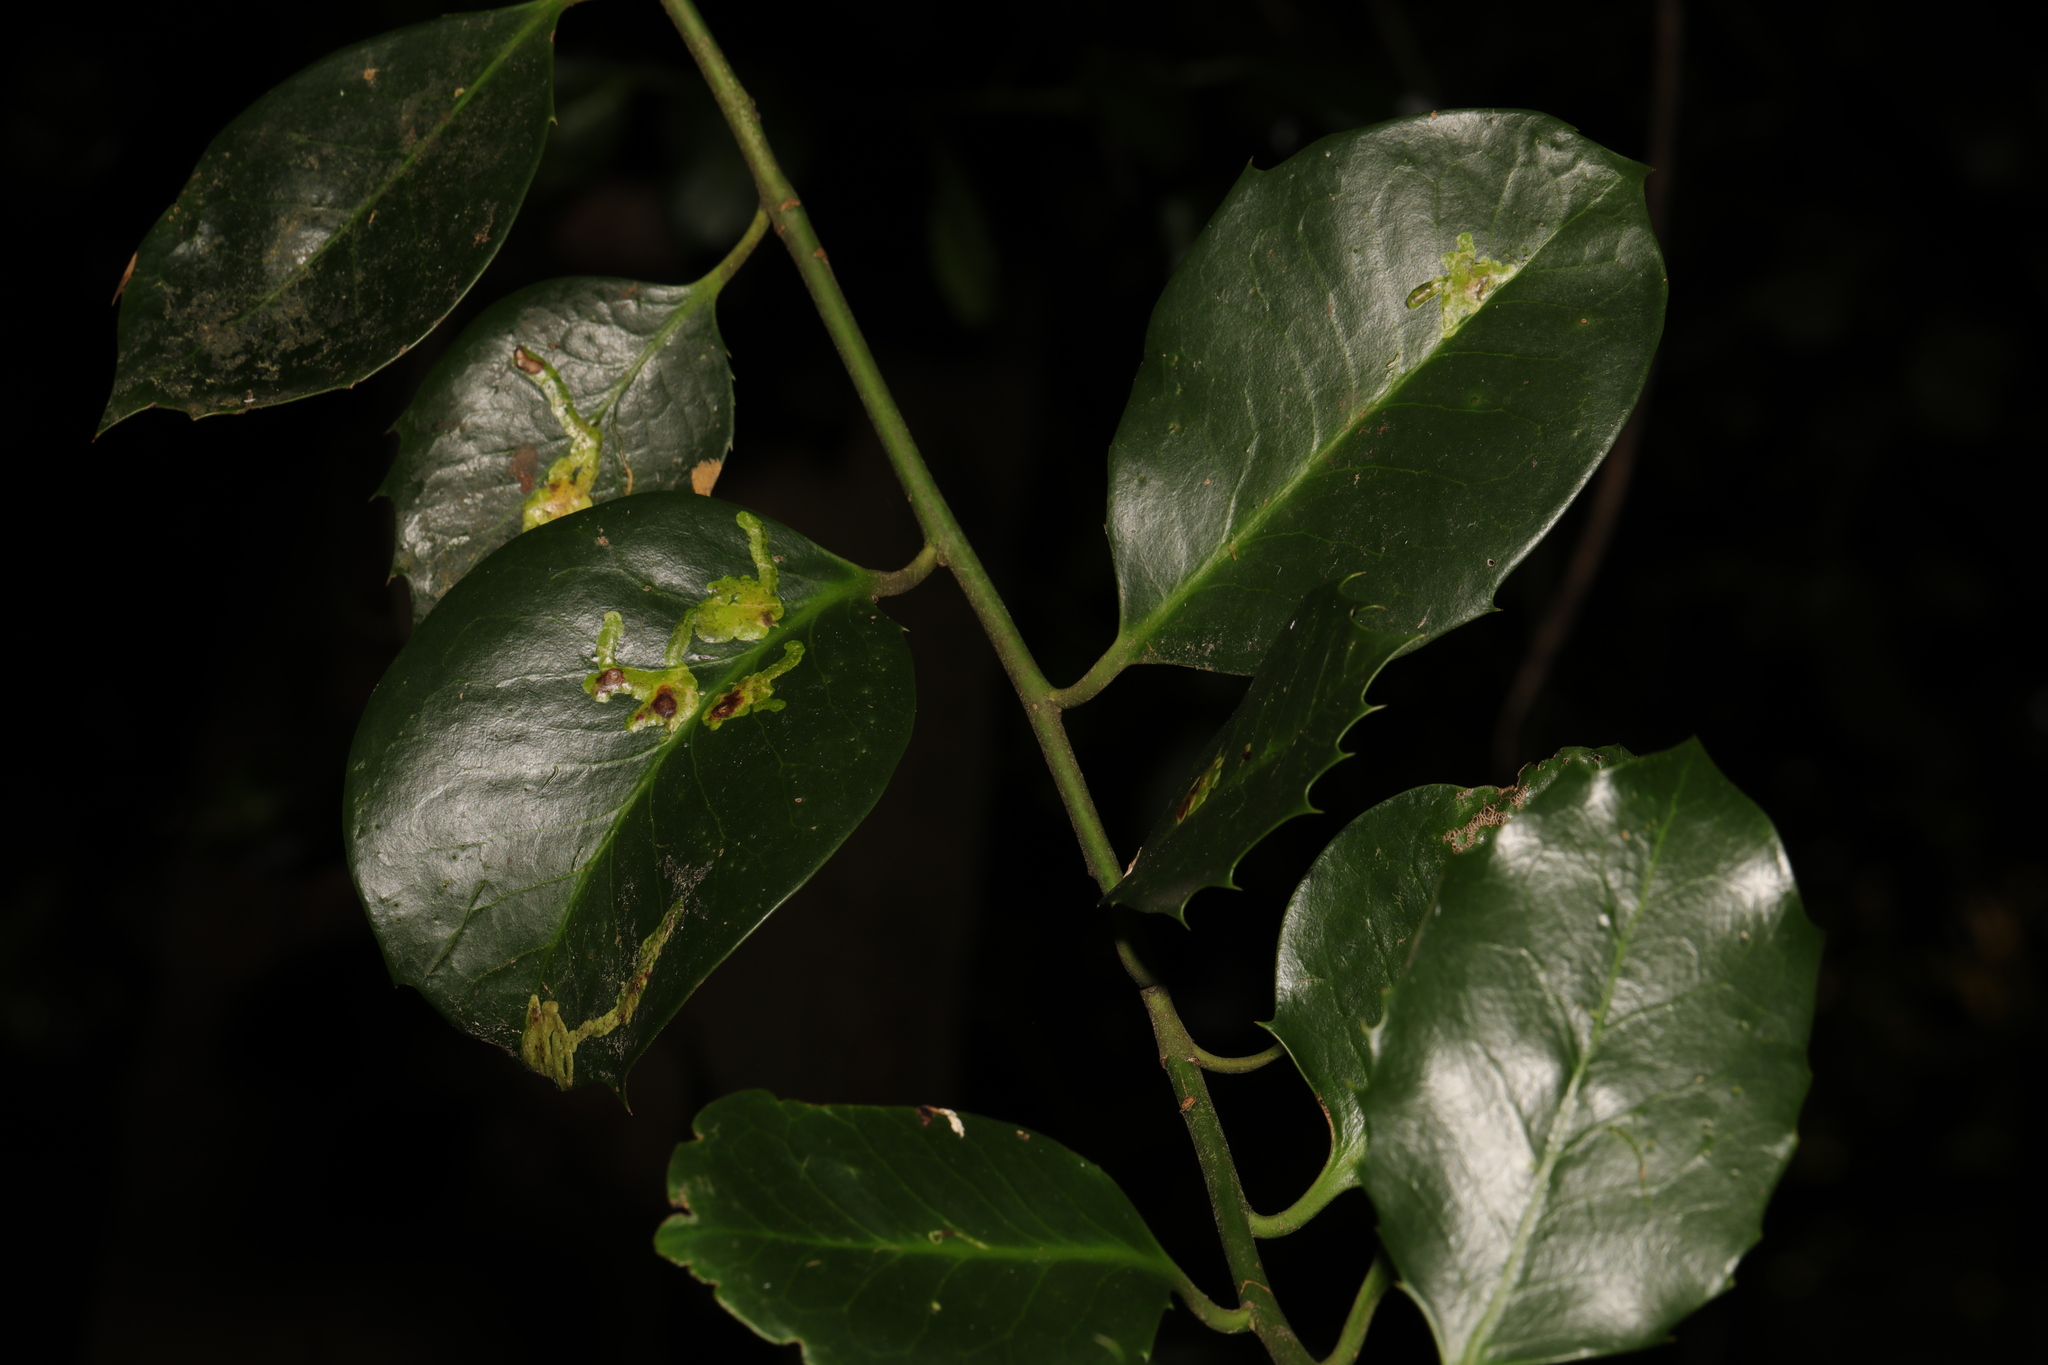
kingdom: Plantae
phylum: Tracheophyta
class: Magnoliopsida
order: Aquifoliales
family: Aquifoliaceae
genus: Ilex
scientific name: Ilex aquifolium
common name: English holly
